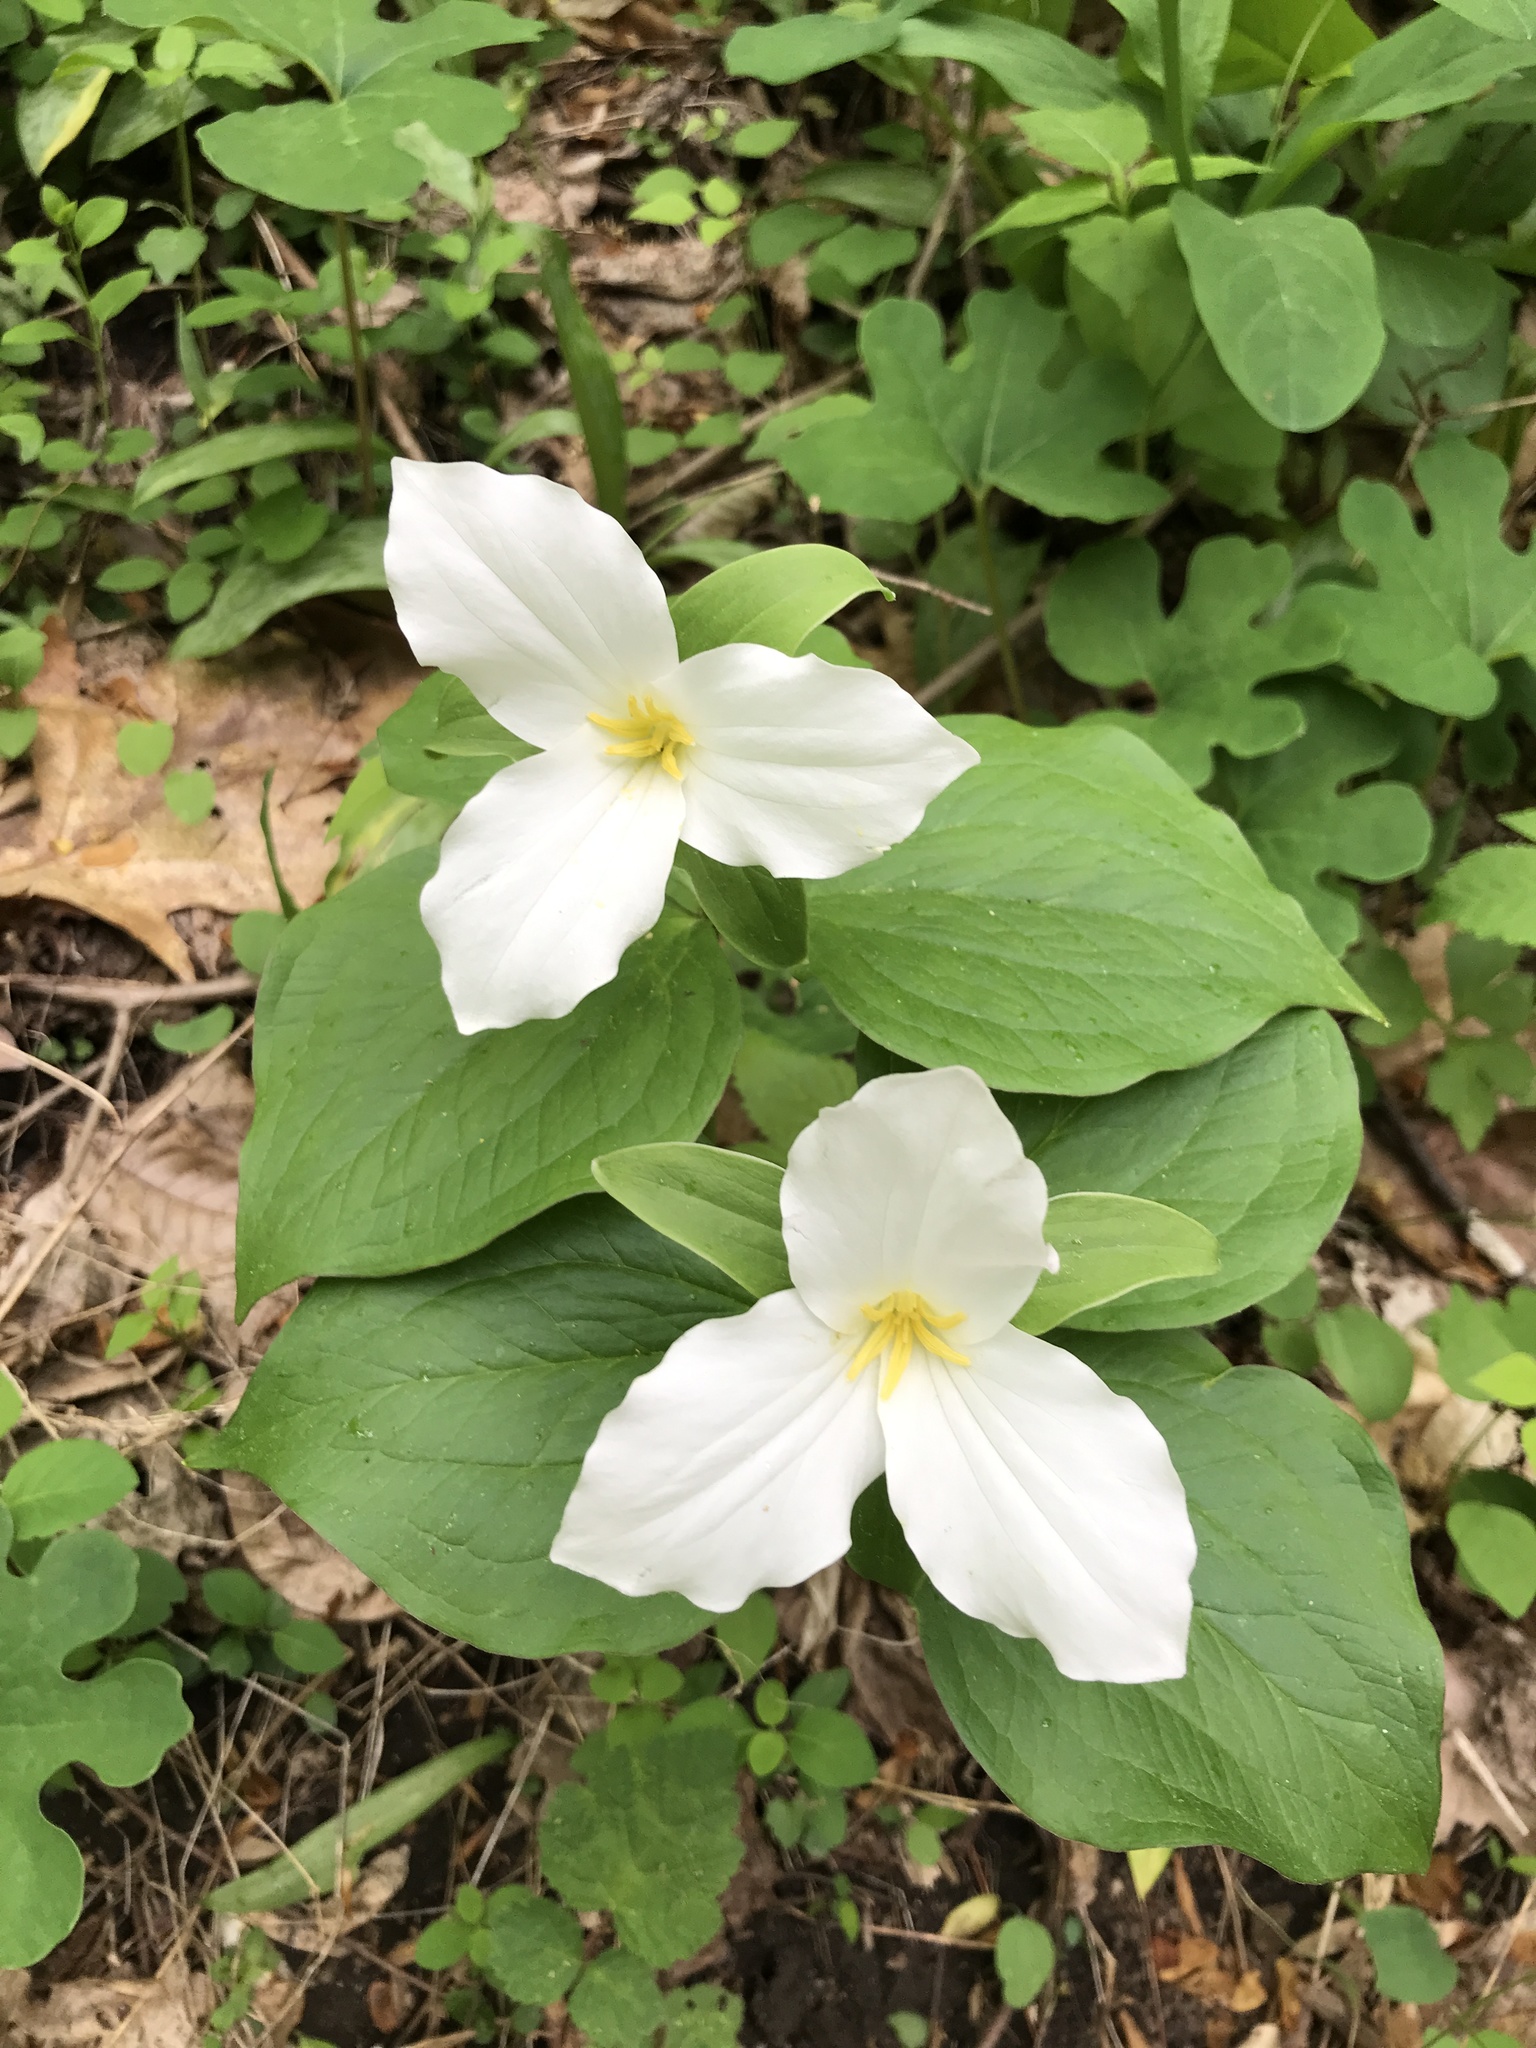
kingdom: Plantae
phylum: Tracheophyta
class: Liliopsida
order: Liliales
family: Melanthiaceae
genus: Trillium
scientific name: Trillium grandiflorum
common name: Great white trillium
